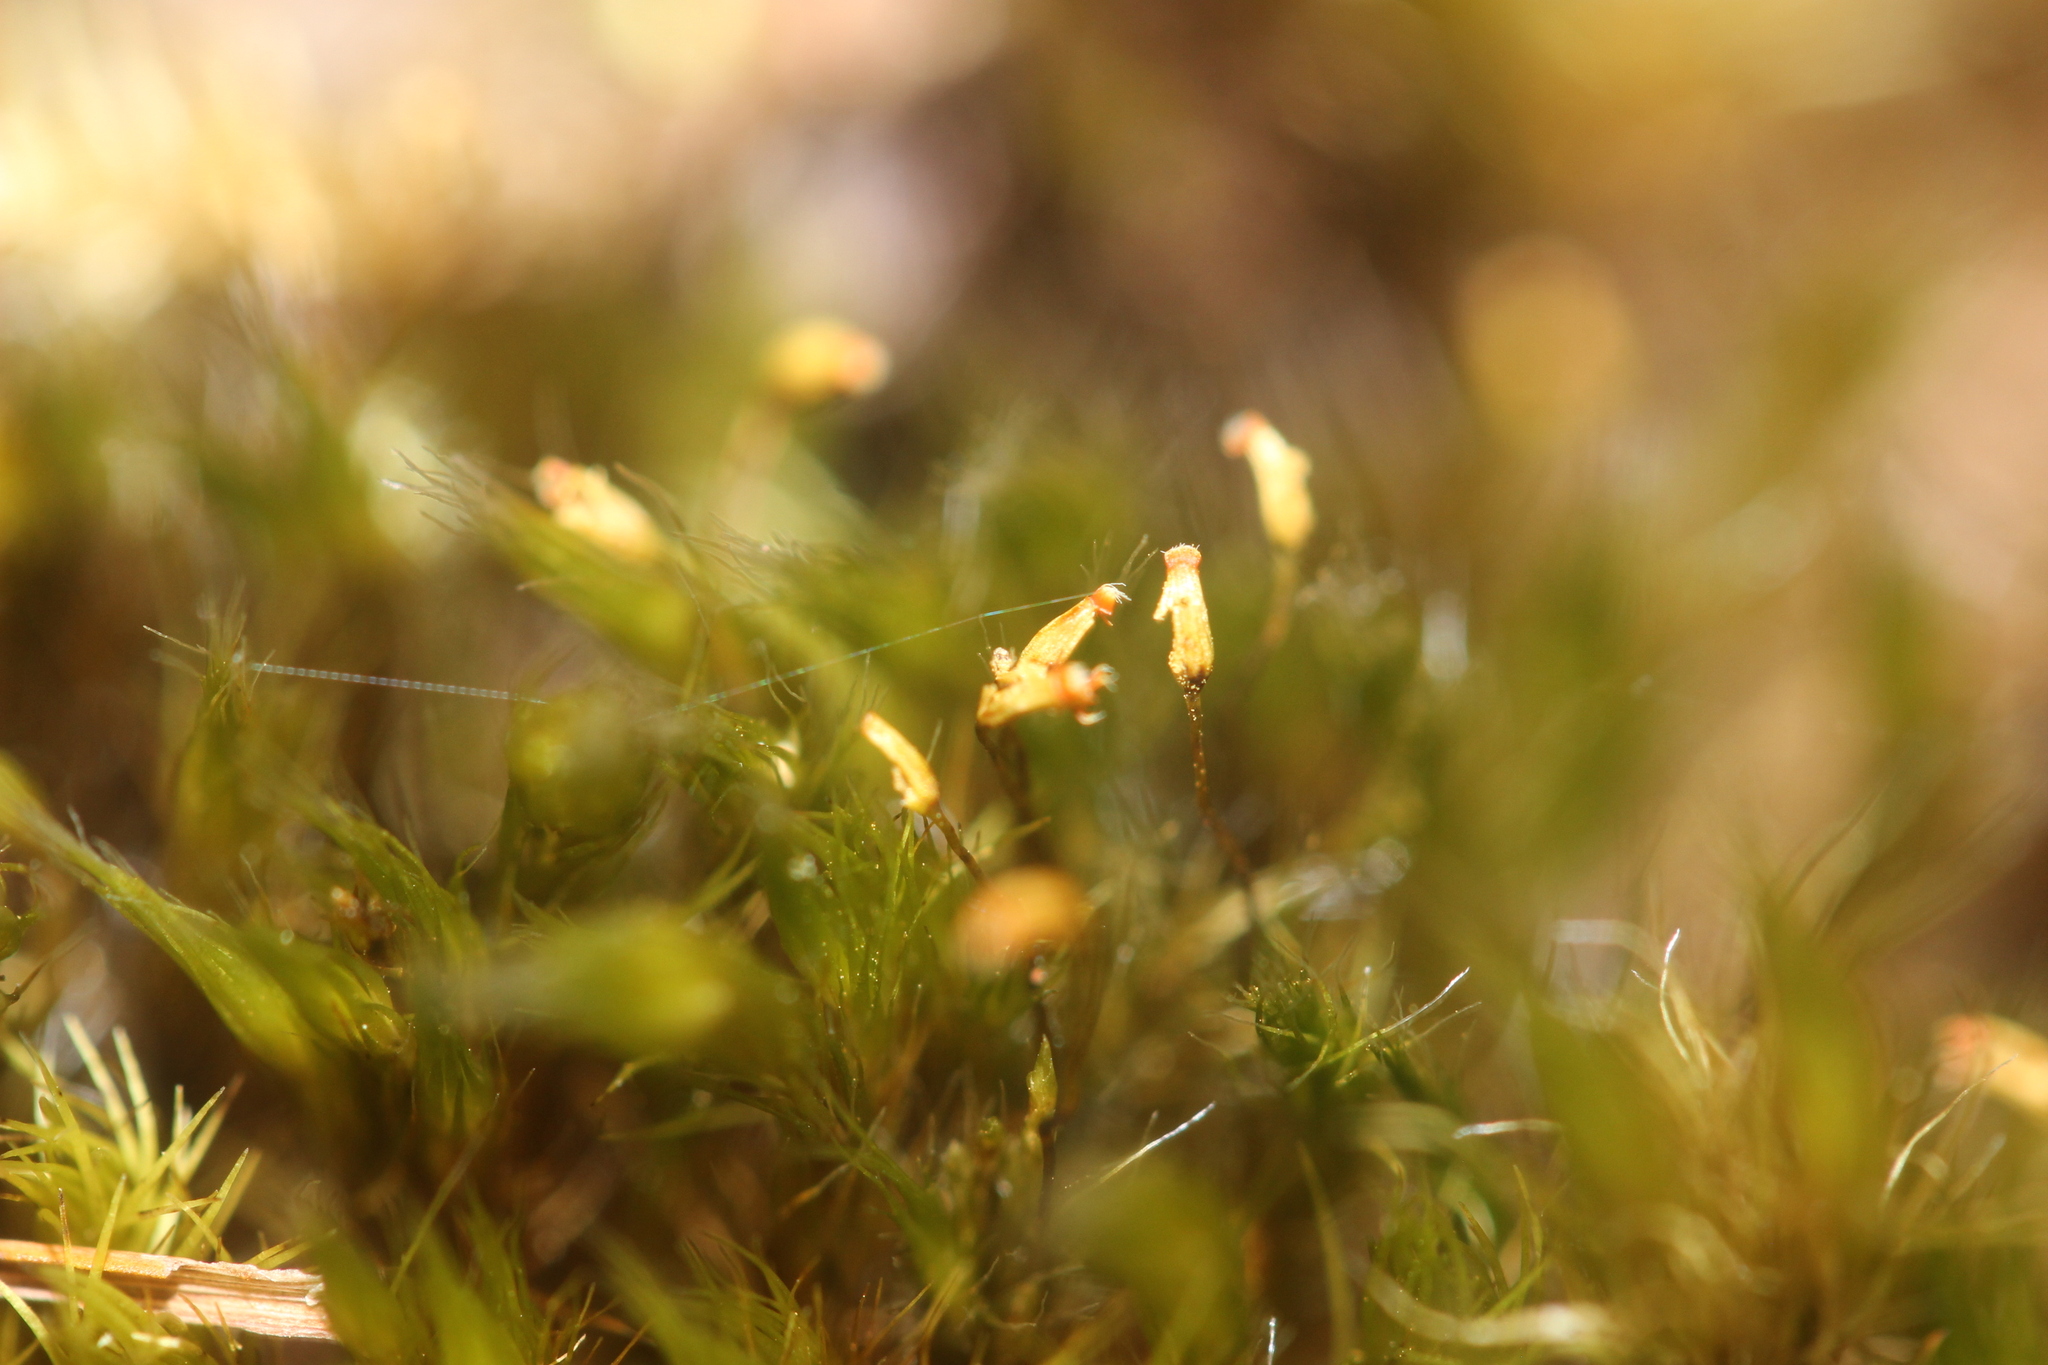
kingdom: Plantae
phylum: Bryophyta
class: Bryopsida
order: Dicranales
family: Leucobryaceae
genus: Campylopus
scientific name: Campylopus introflexus
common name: Heath star moss
